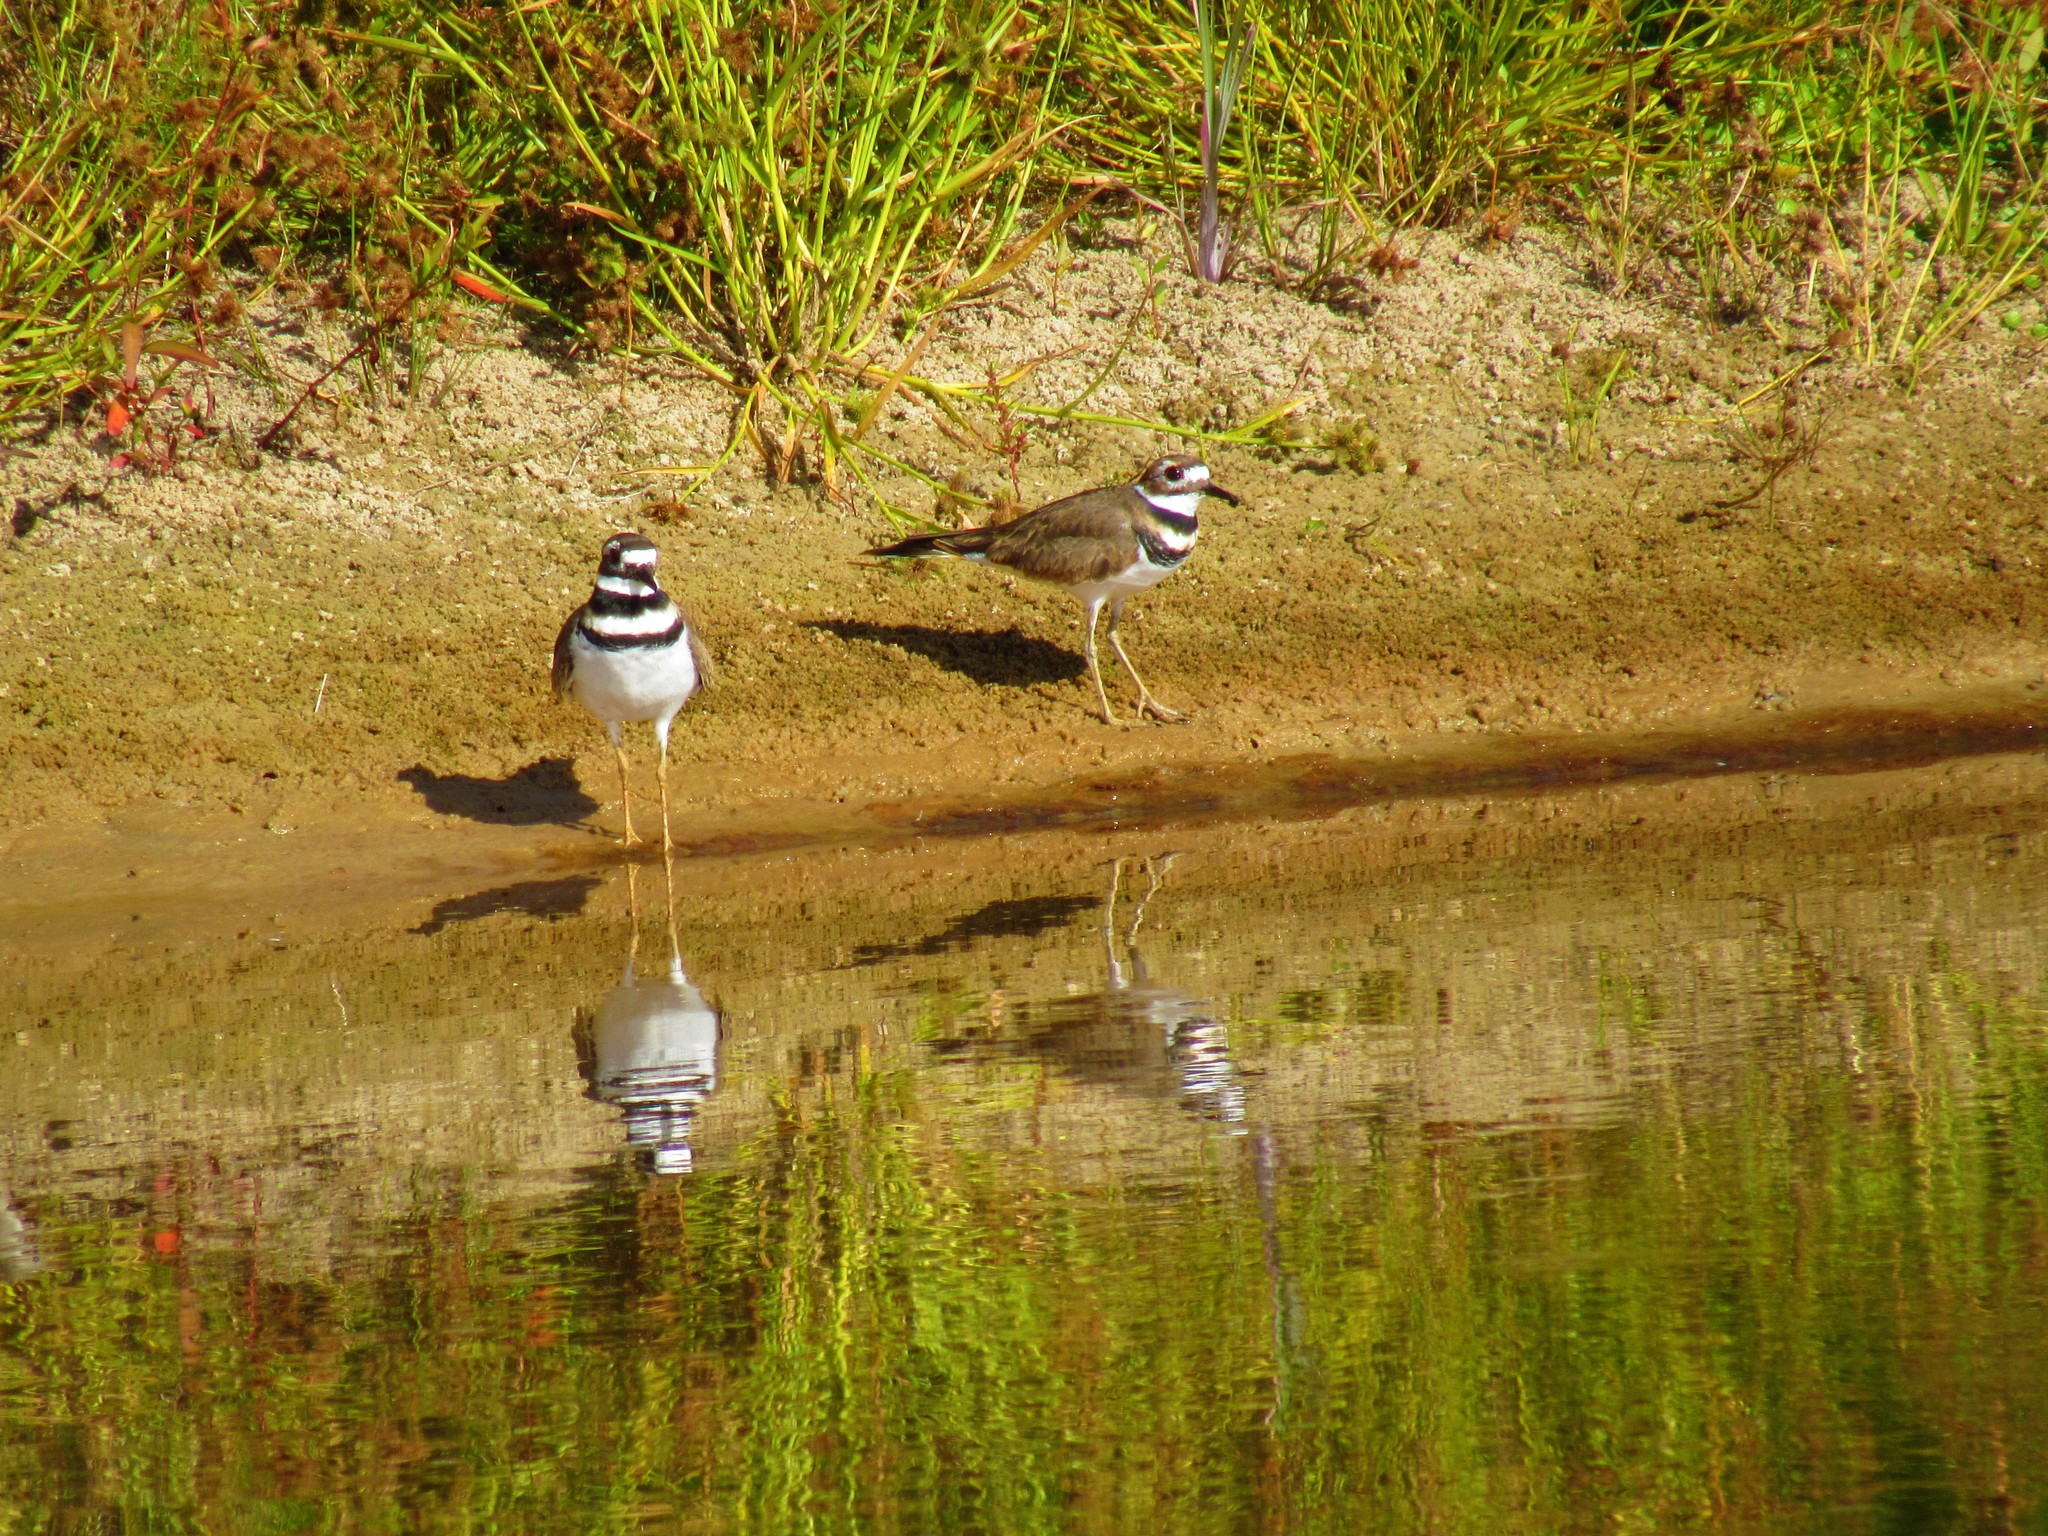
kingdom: Animalia
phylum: Chordata
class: Aves
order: Charadriiformes
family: Charadriidae
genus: Charadrius
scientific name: Charadrius vociferus
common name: Killdeer
